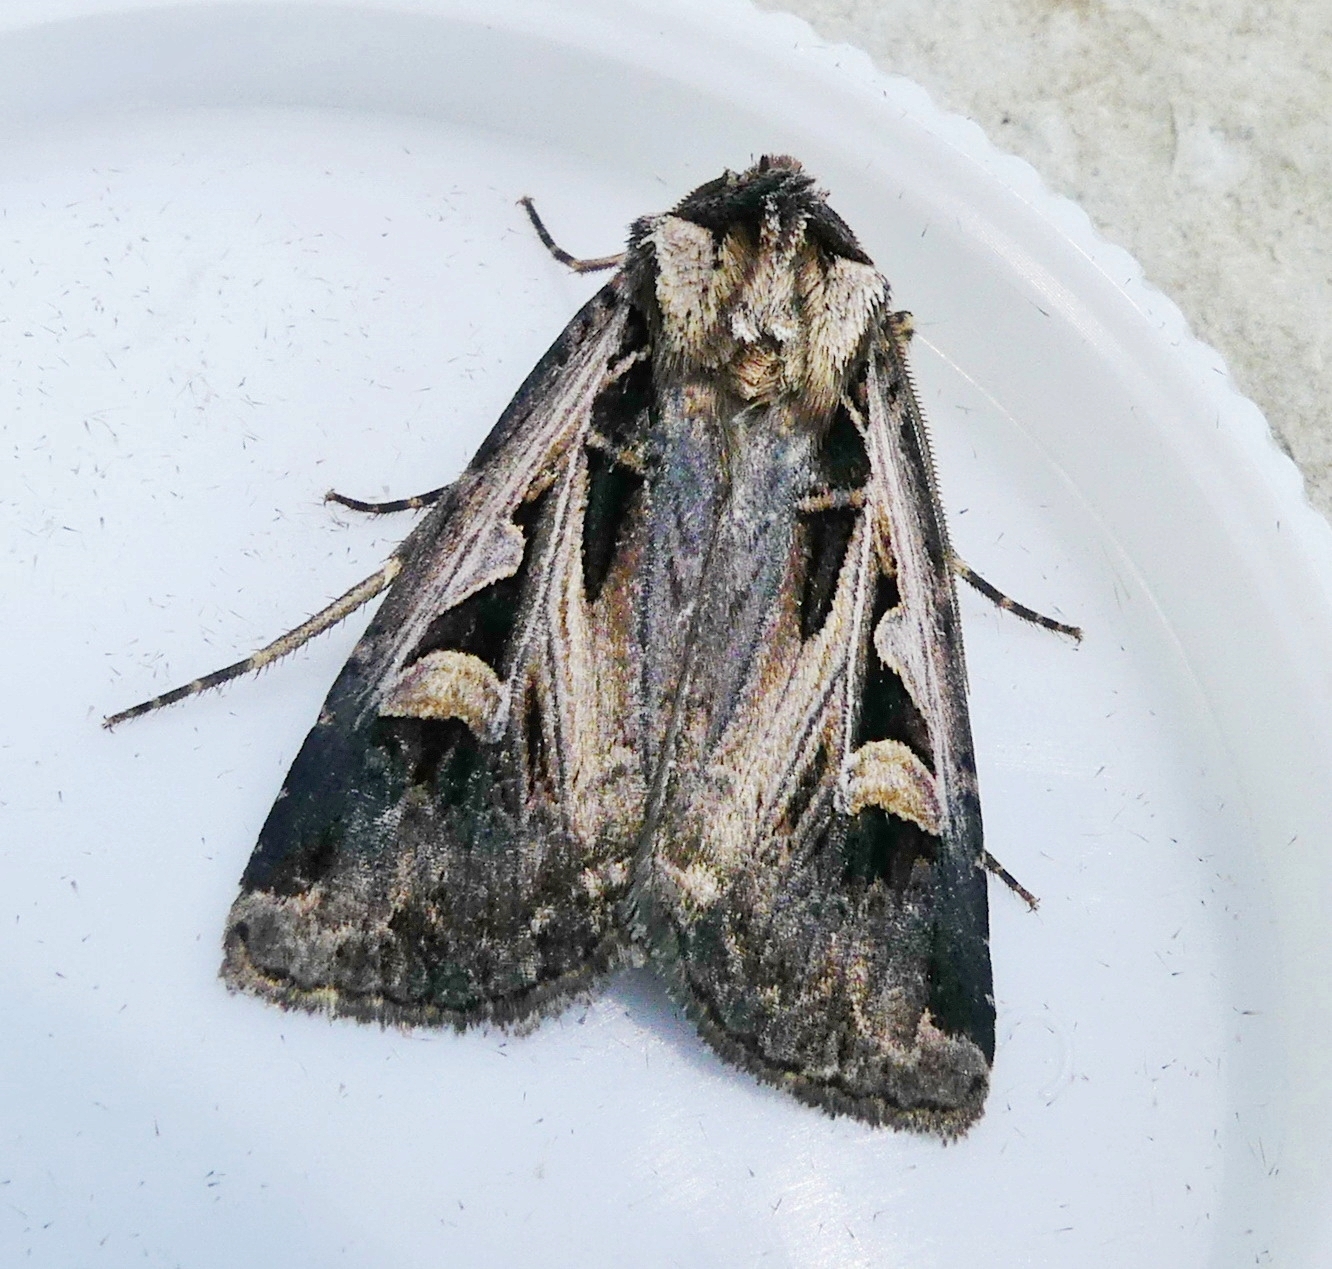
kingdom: Animalia
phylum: Arthropoda
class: Insecta
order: Lepidoptera
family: Noctuidae
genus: Feltia
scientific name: Feltia tricosa
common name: Confused dart moth
